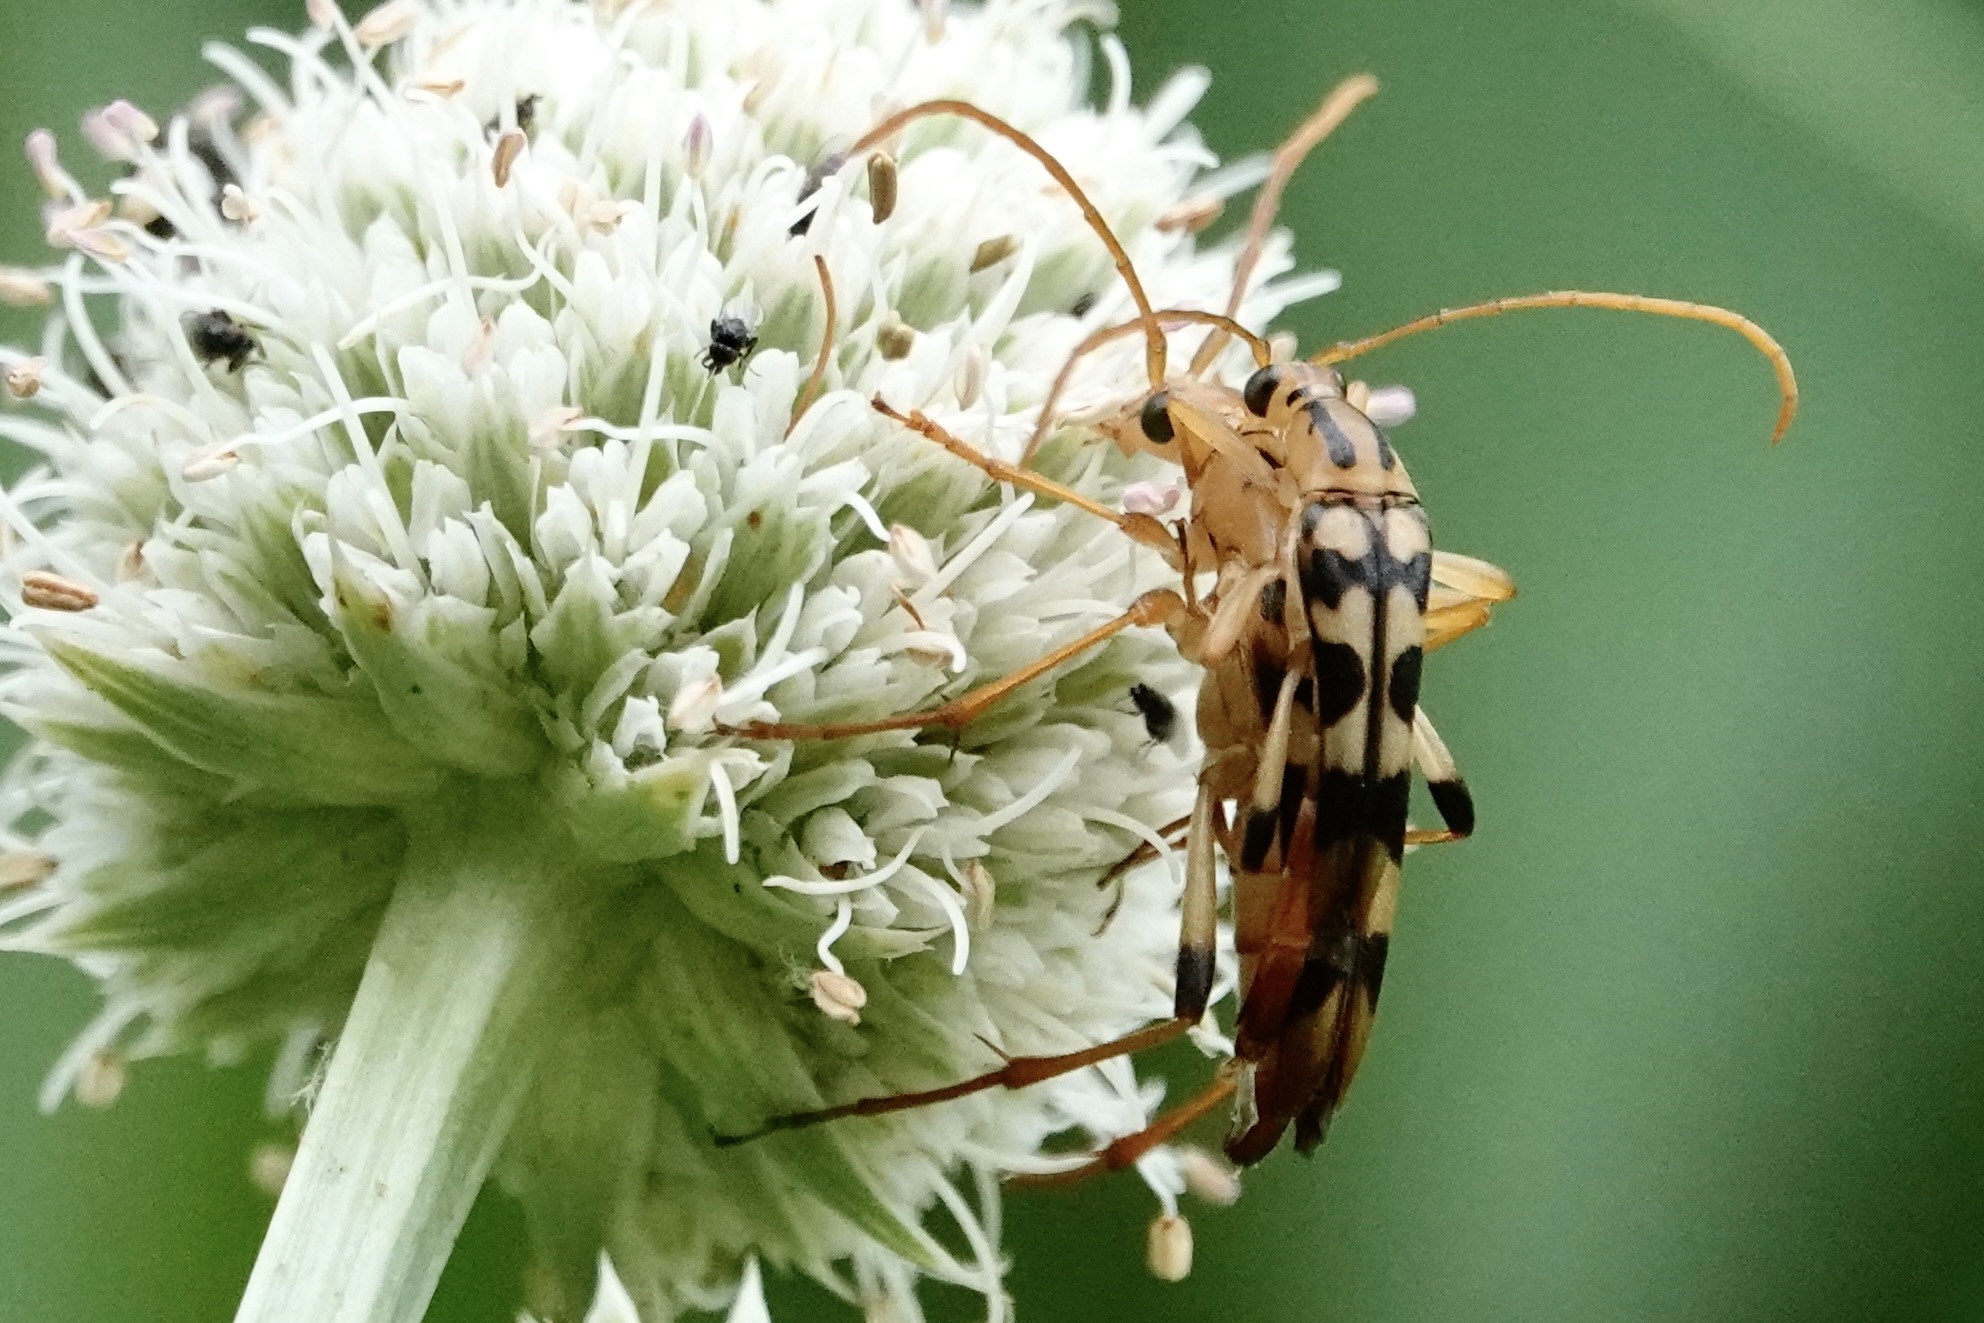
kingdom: Animalia
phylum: Arthropoda
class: Insecta
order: Coleoptera
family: Cerambycidae
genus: Strangalia
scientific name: Strangalia luteicornis
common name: Yellow-horned flower longhorn beetle
